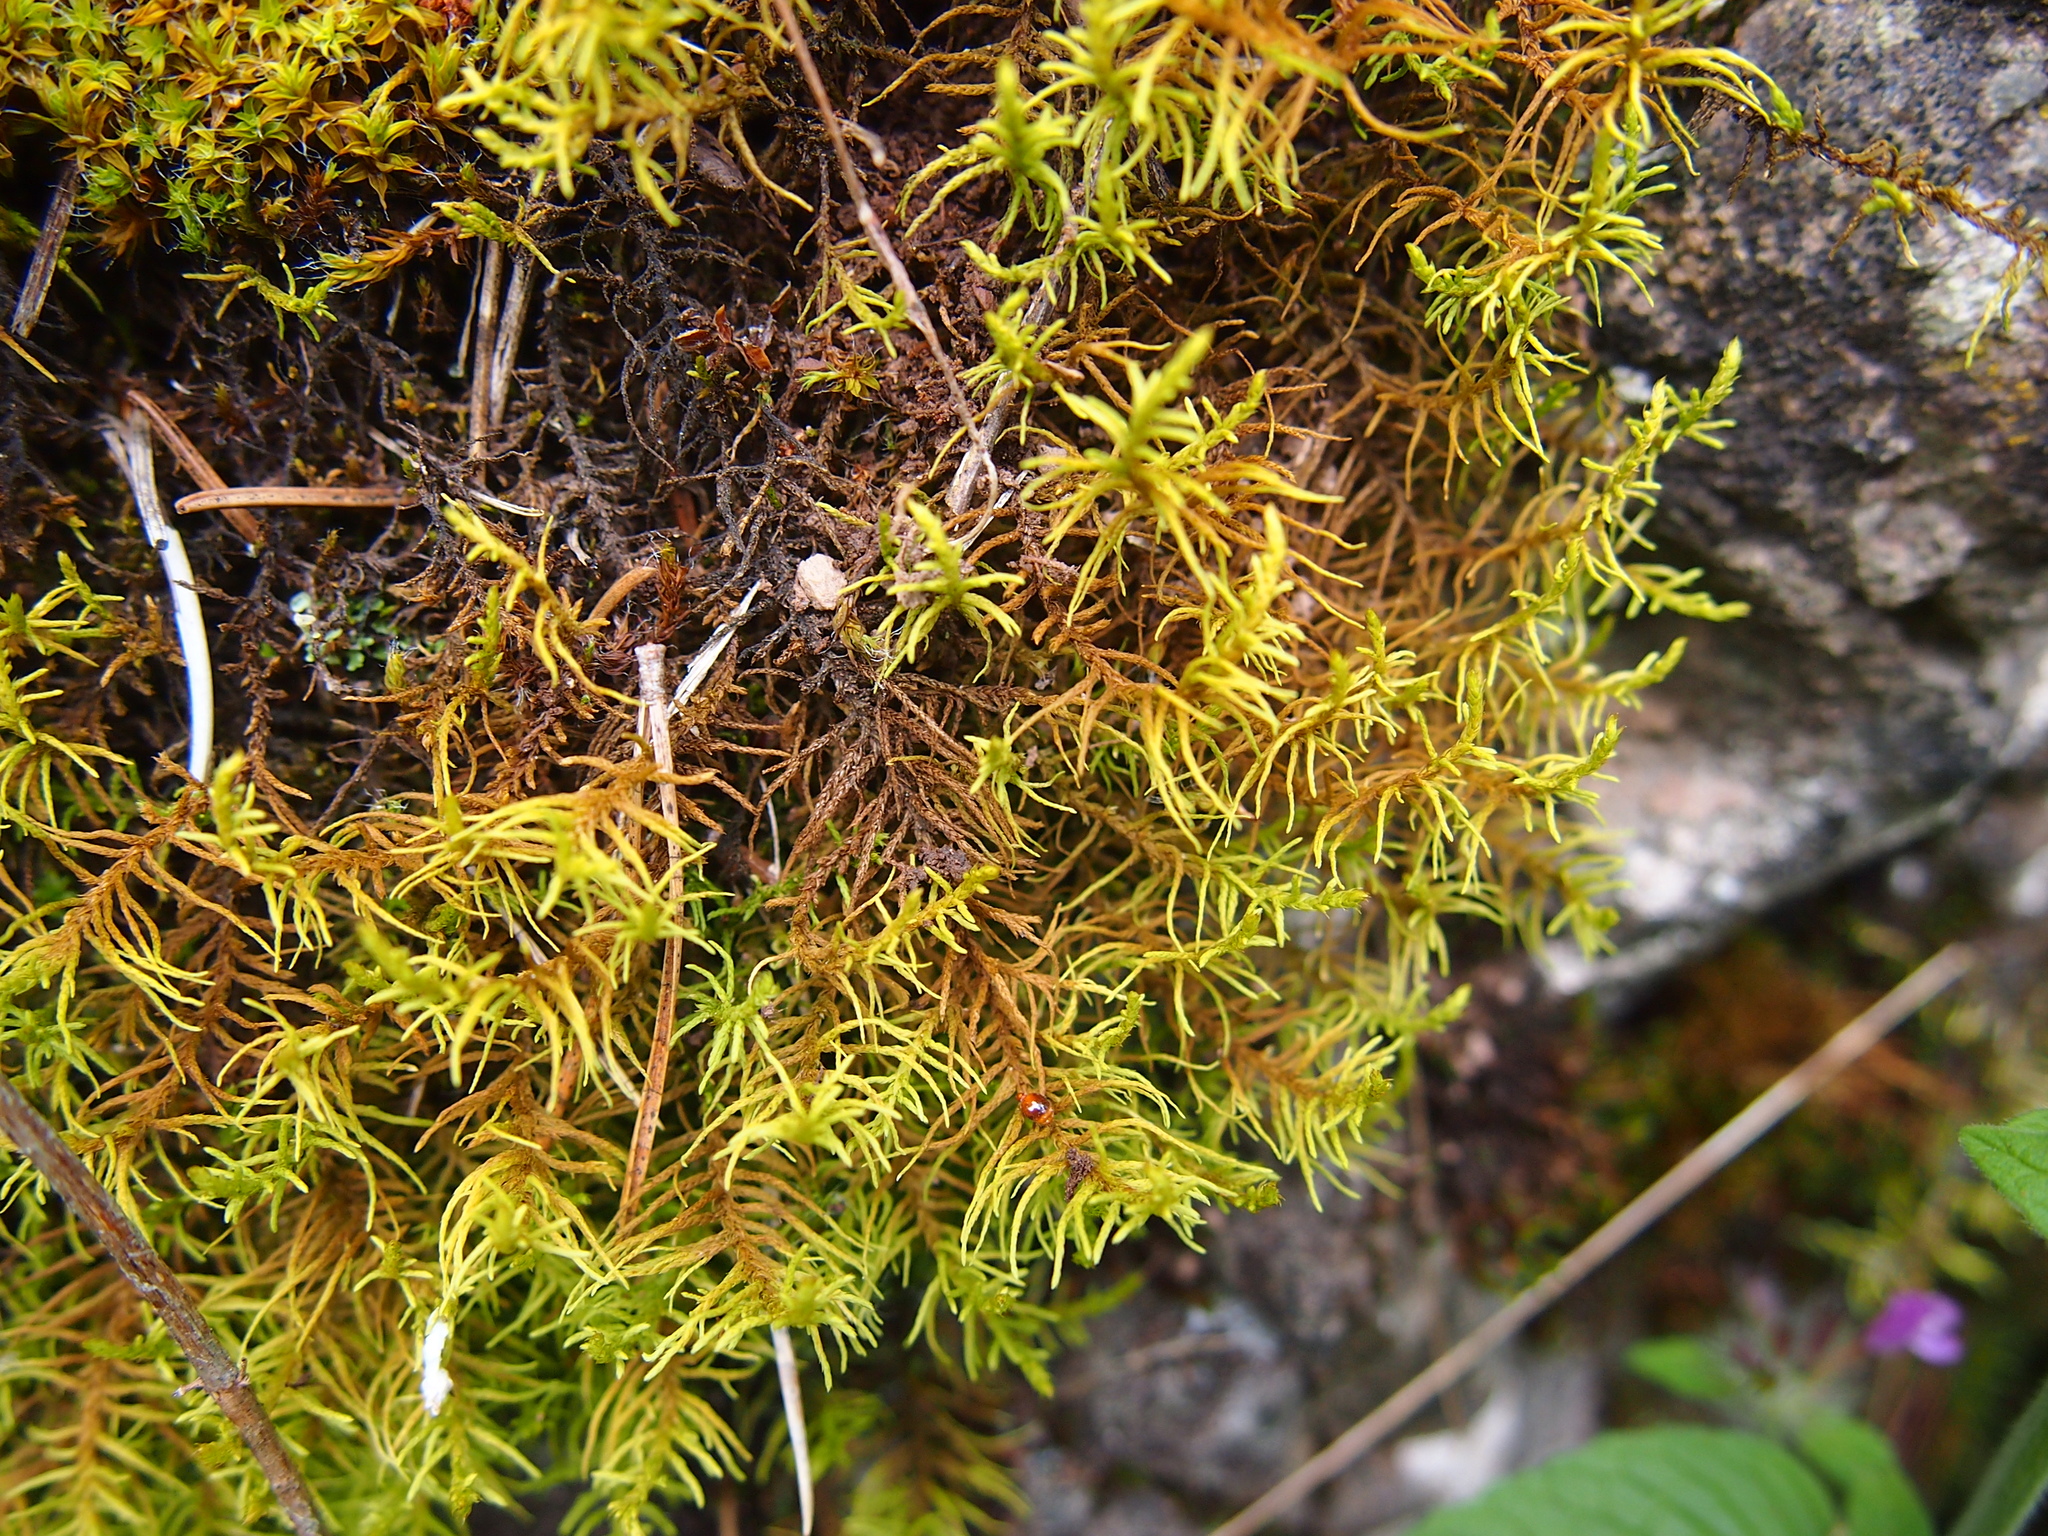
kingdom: Plantae
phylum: Bryophyta
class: Bryopsida
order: Hypnales
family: Thuidiaceae
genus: Abietinella
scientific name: Abietinella abietina
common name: Wiry fern moss
